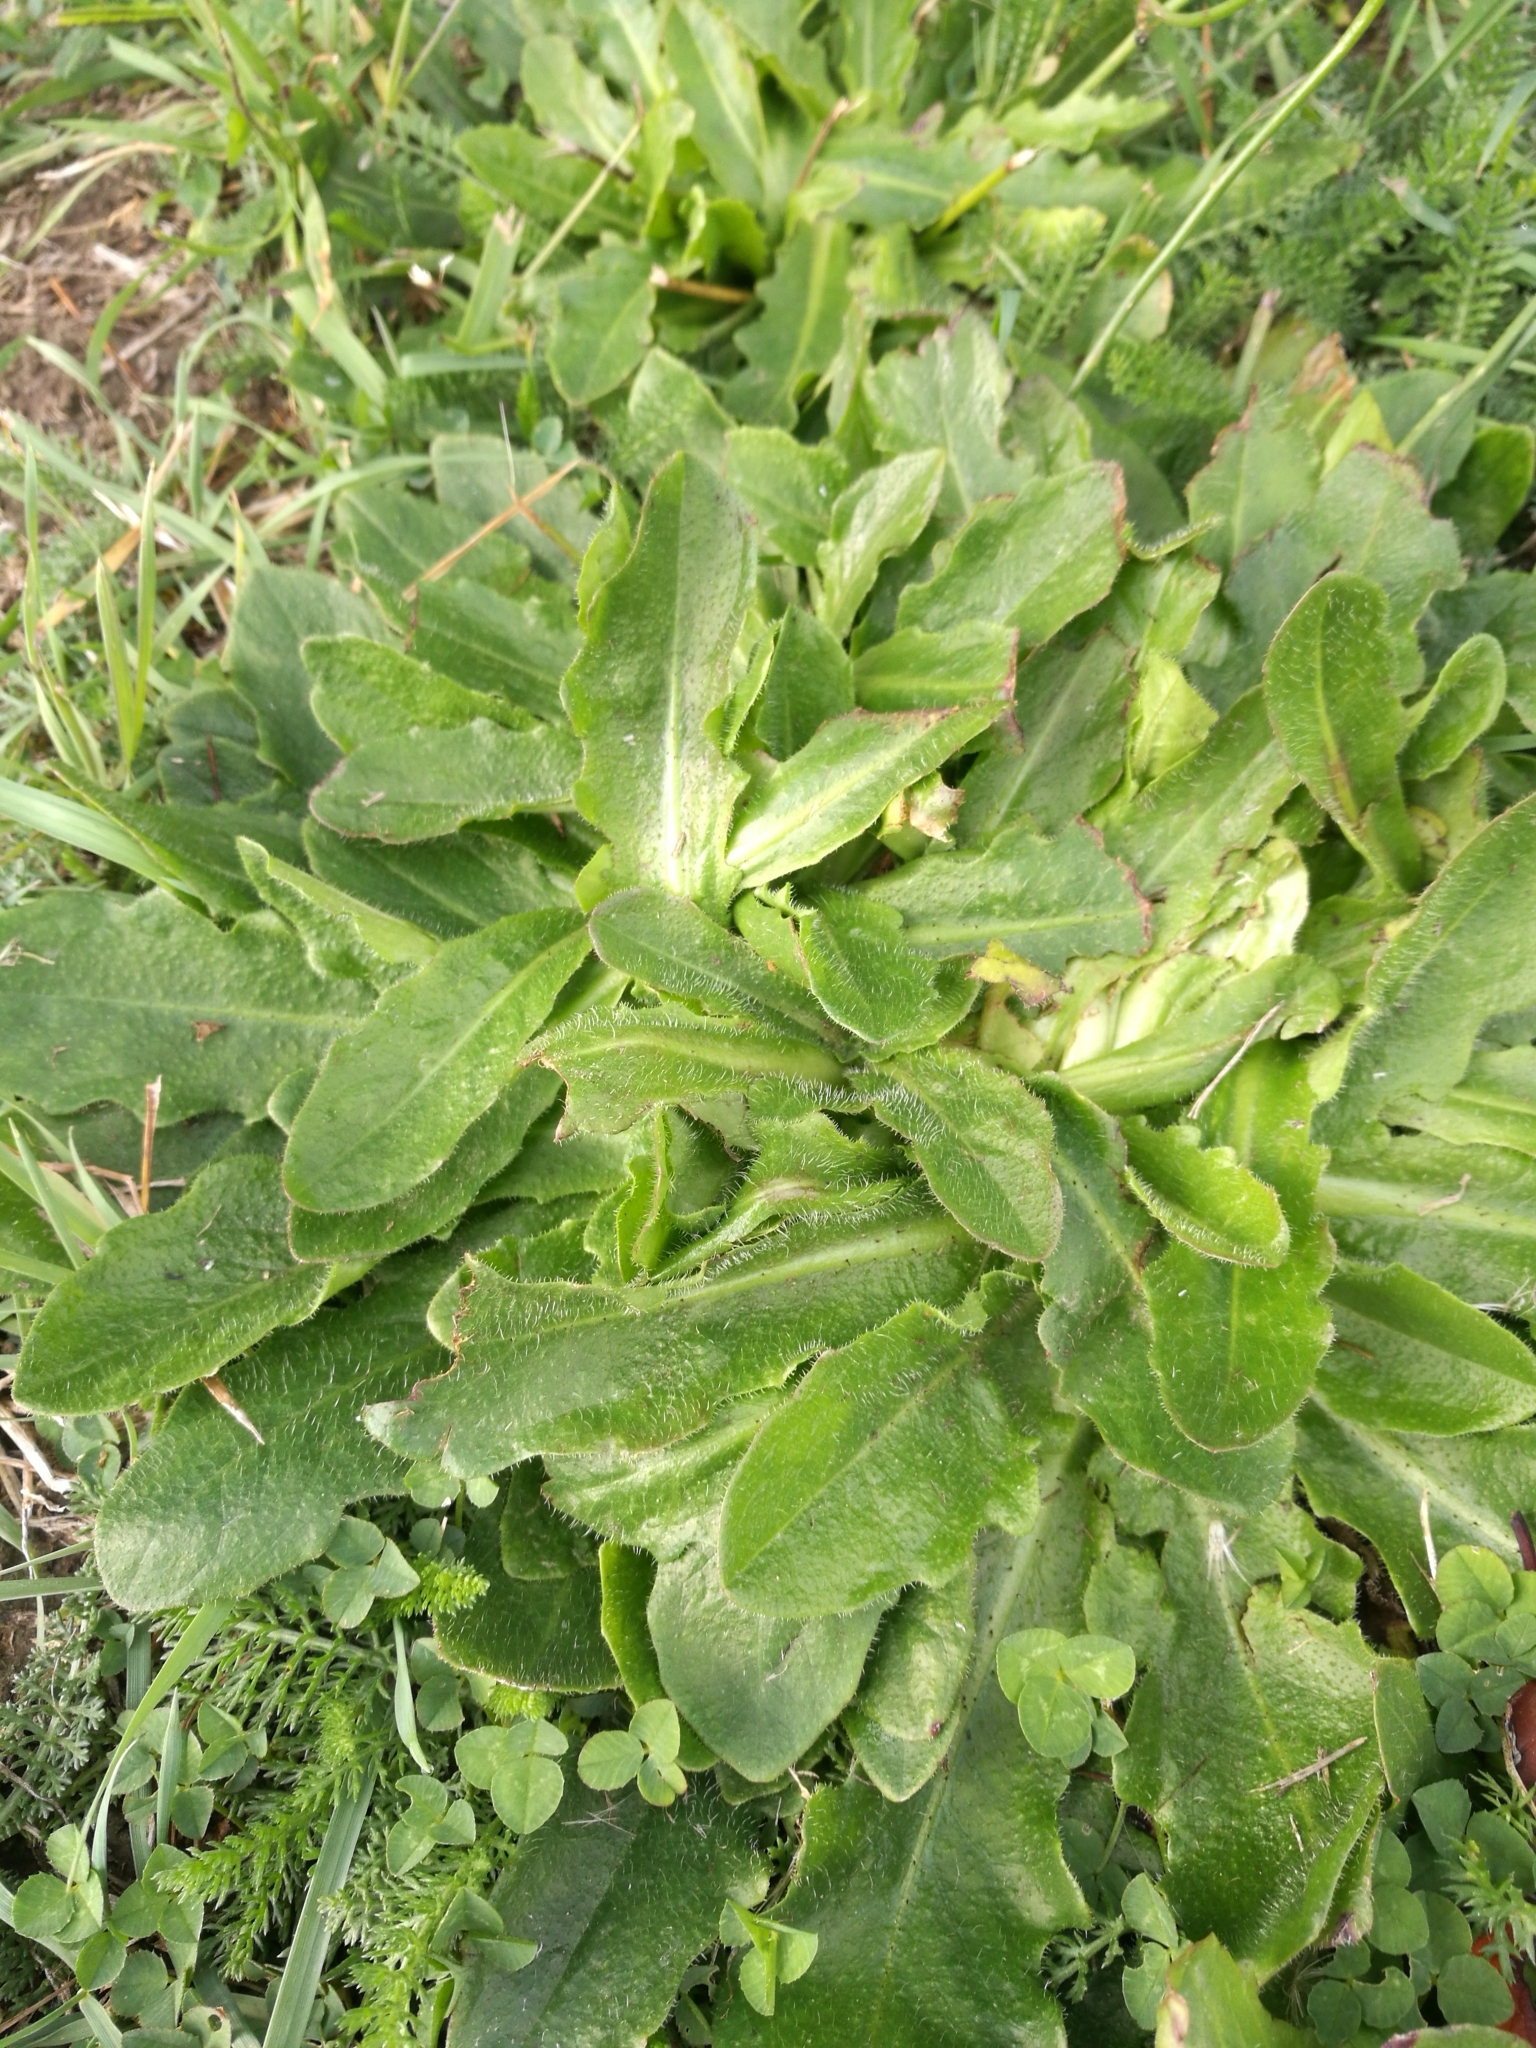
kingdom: Plantae
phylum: Tracheophyta
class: Magnoliopsida
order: Asterales
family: Asteraceae
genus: Hypochaeris
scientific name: Hypochaeris radicata
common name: Flatweed
